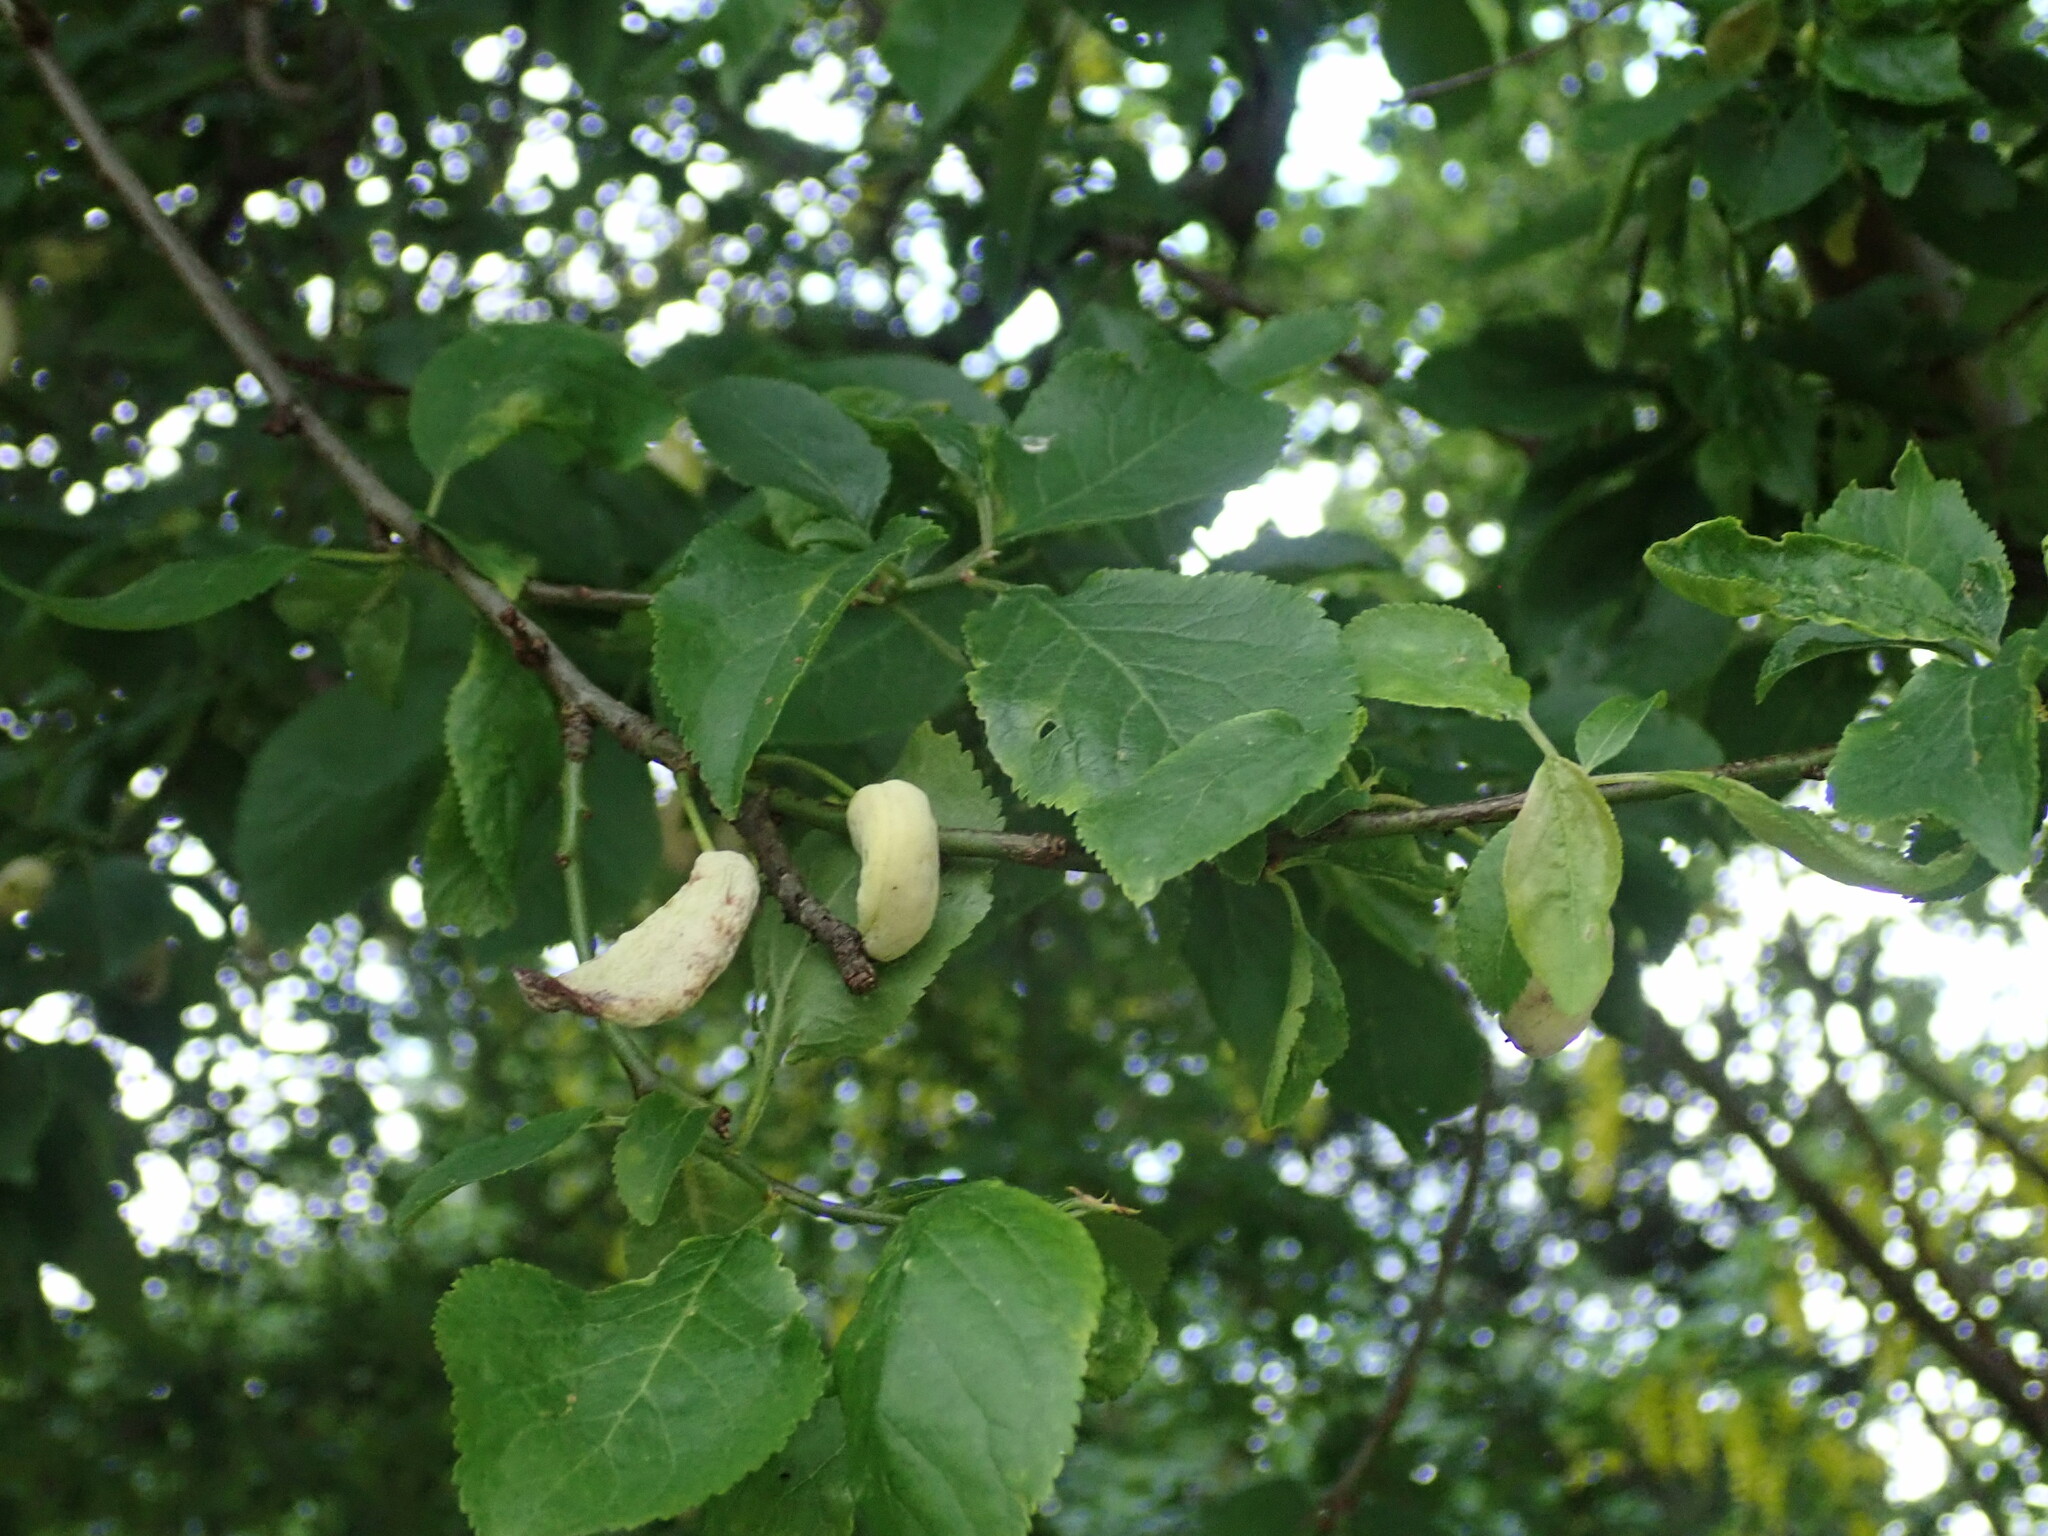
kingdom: Fungi
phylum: Ascomycota
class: Taphrinomycetes
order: Taphrinales
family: Taphrinaceae
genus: Taphrina
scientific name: Taphrina pruni
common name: Pocket plum
